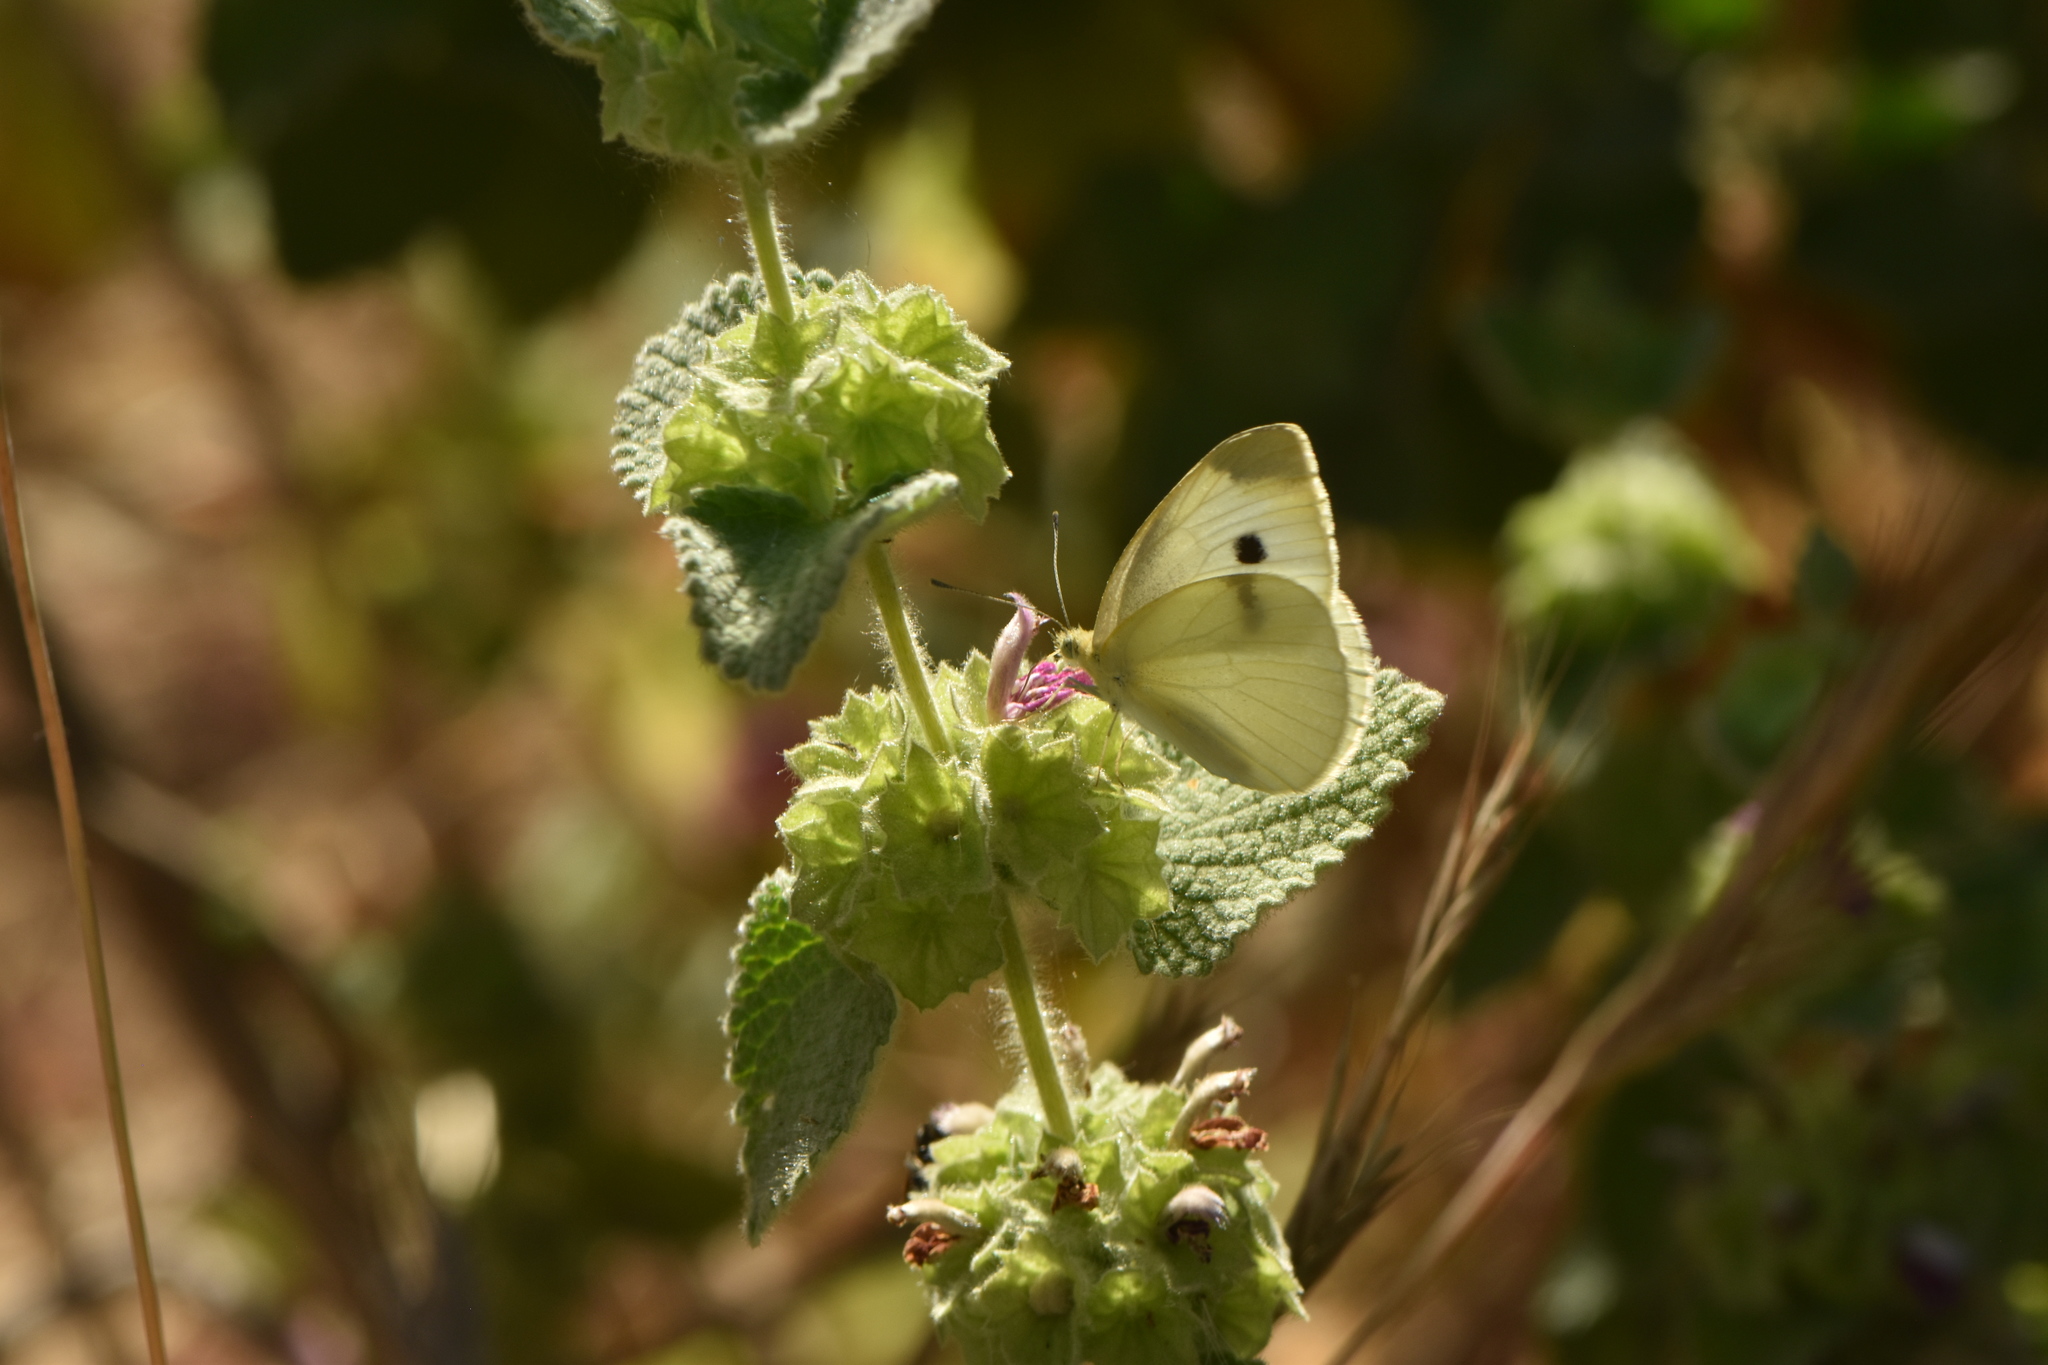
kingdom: Animalia
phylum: Arthropoda
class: Insecta
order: Lepidoptera
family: Pieridae
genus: Pieris
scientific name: Pieris rapae
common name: Small white
